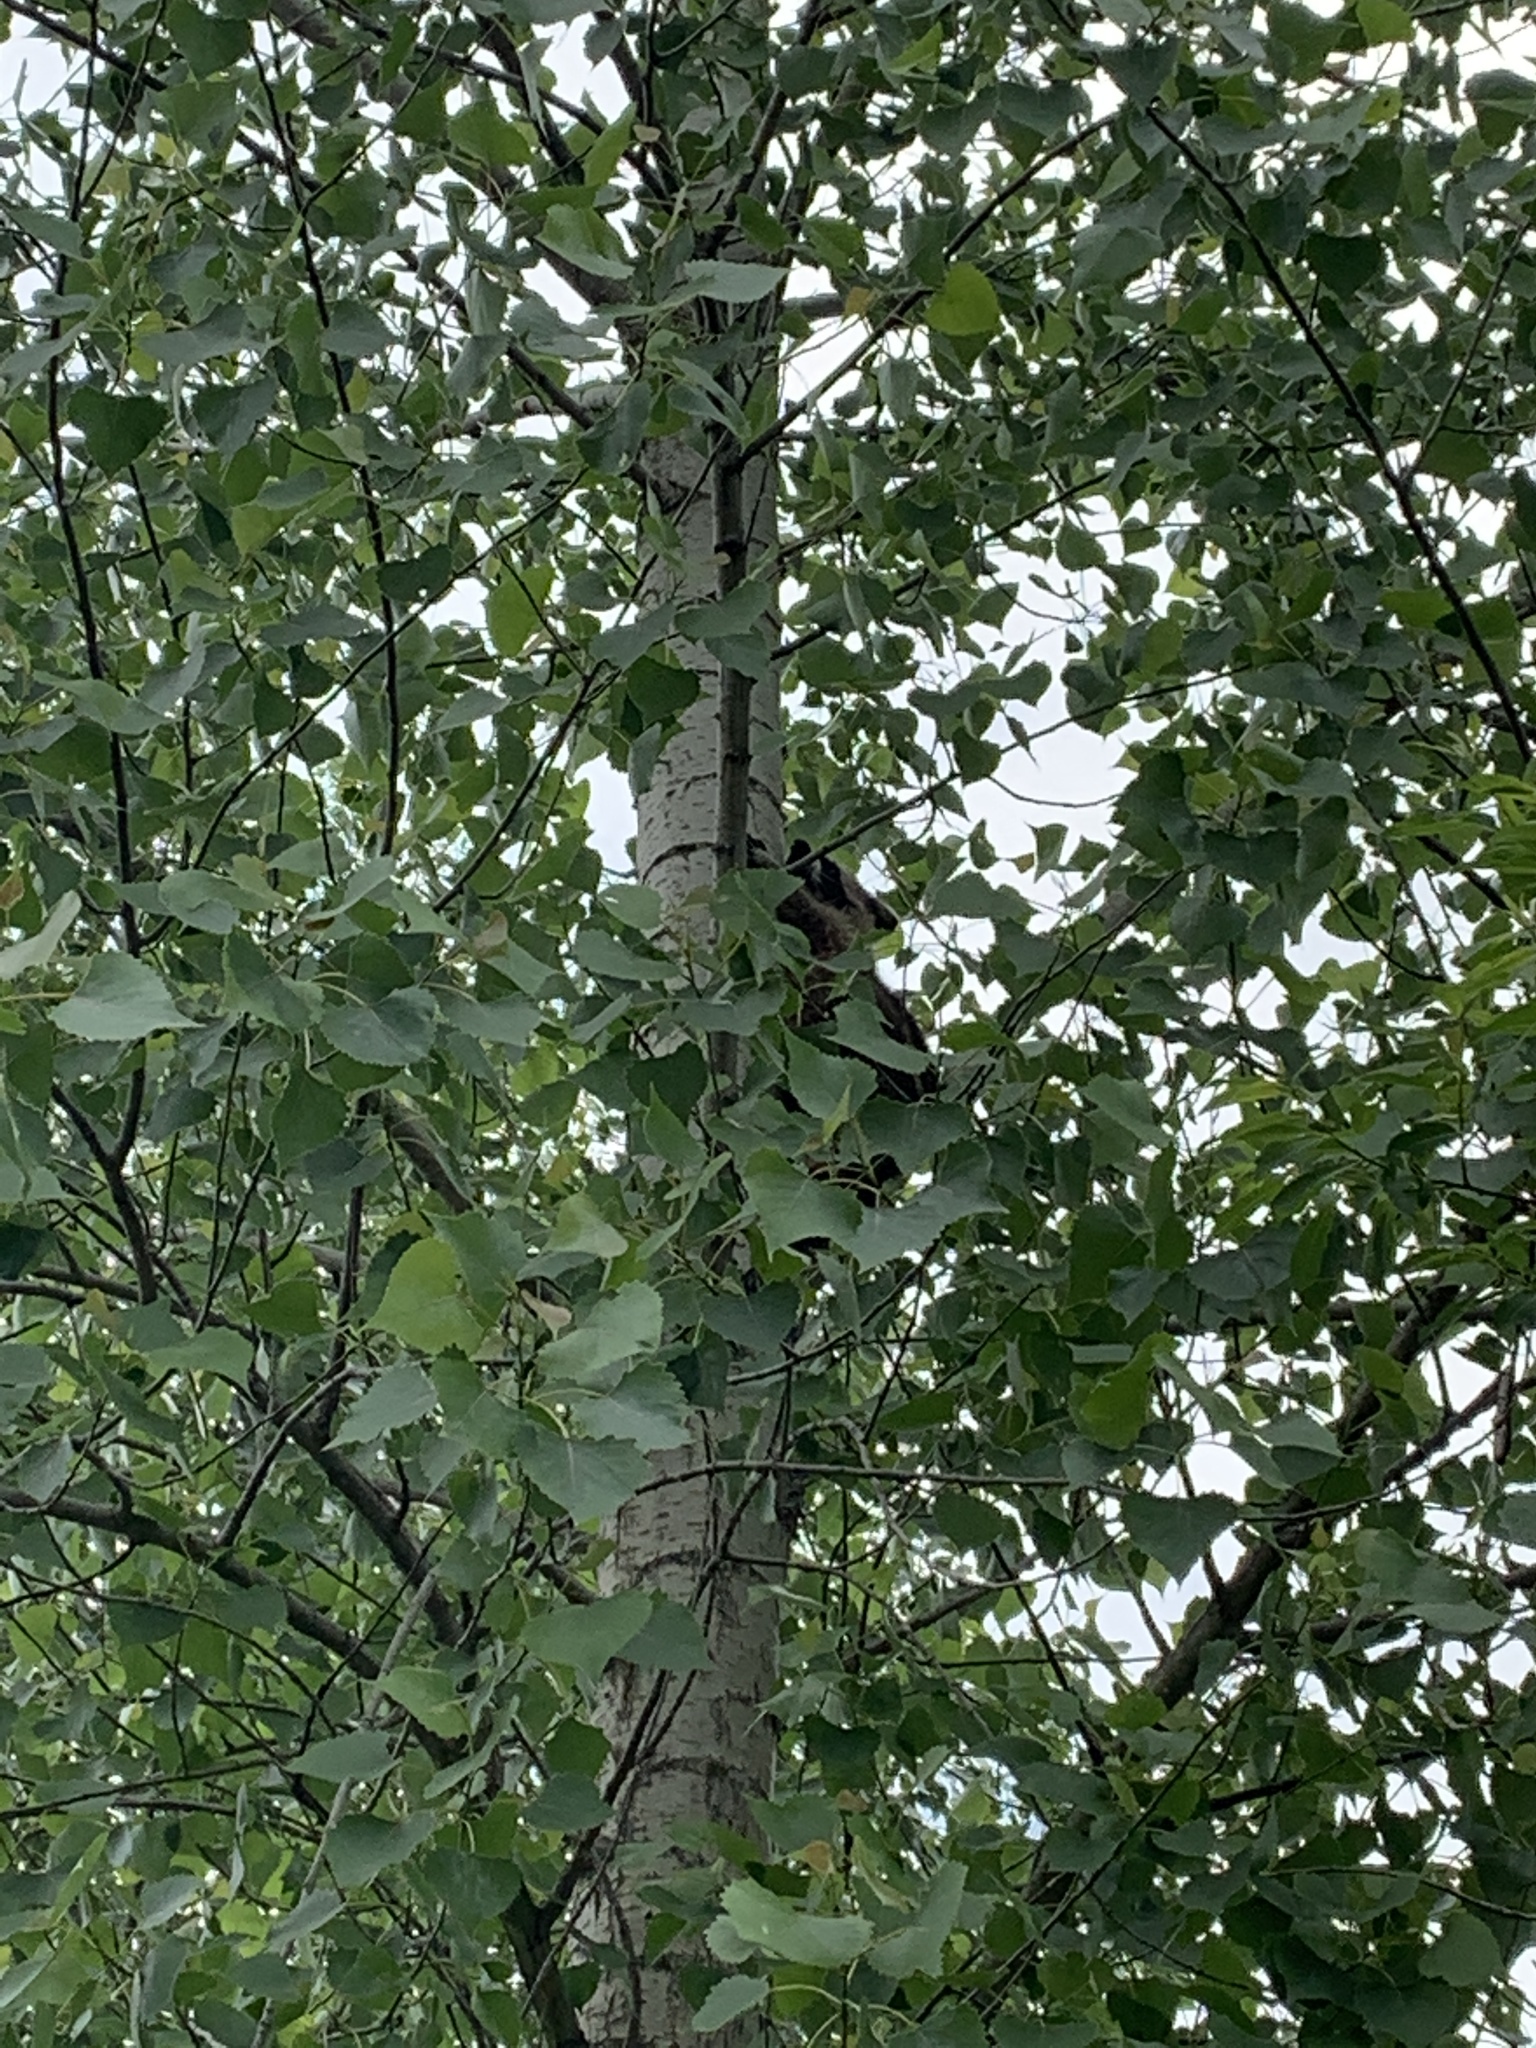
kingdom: Animalia
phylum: Chordata
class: Mammalia
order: Carnivora
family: Procyonidae
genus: Procyon
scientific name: Procyon lotor
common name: Raccoon
